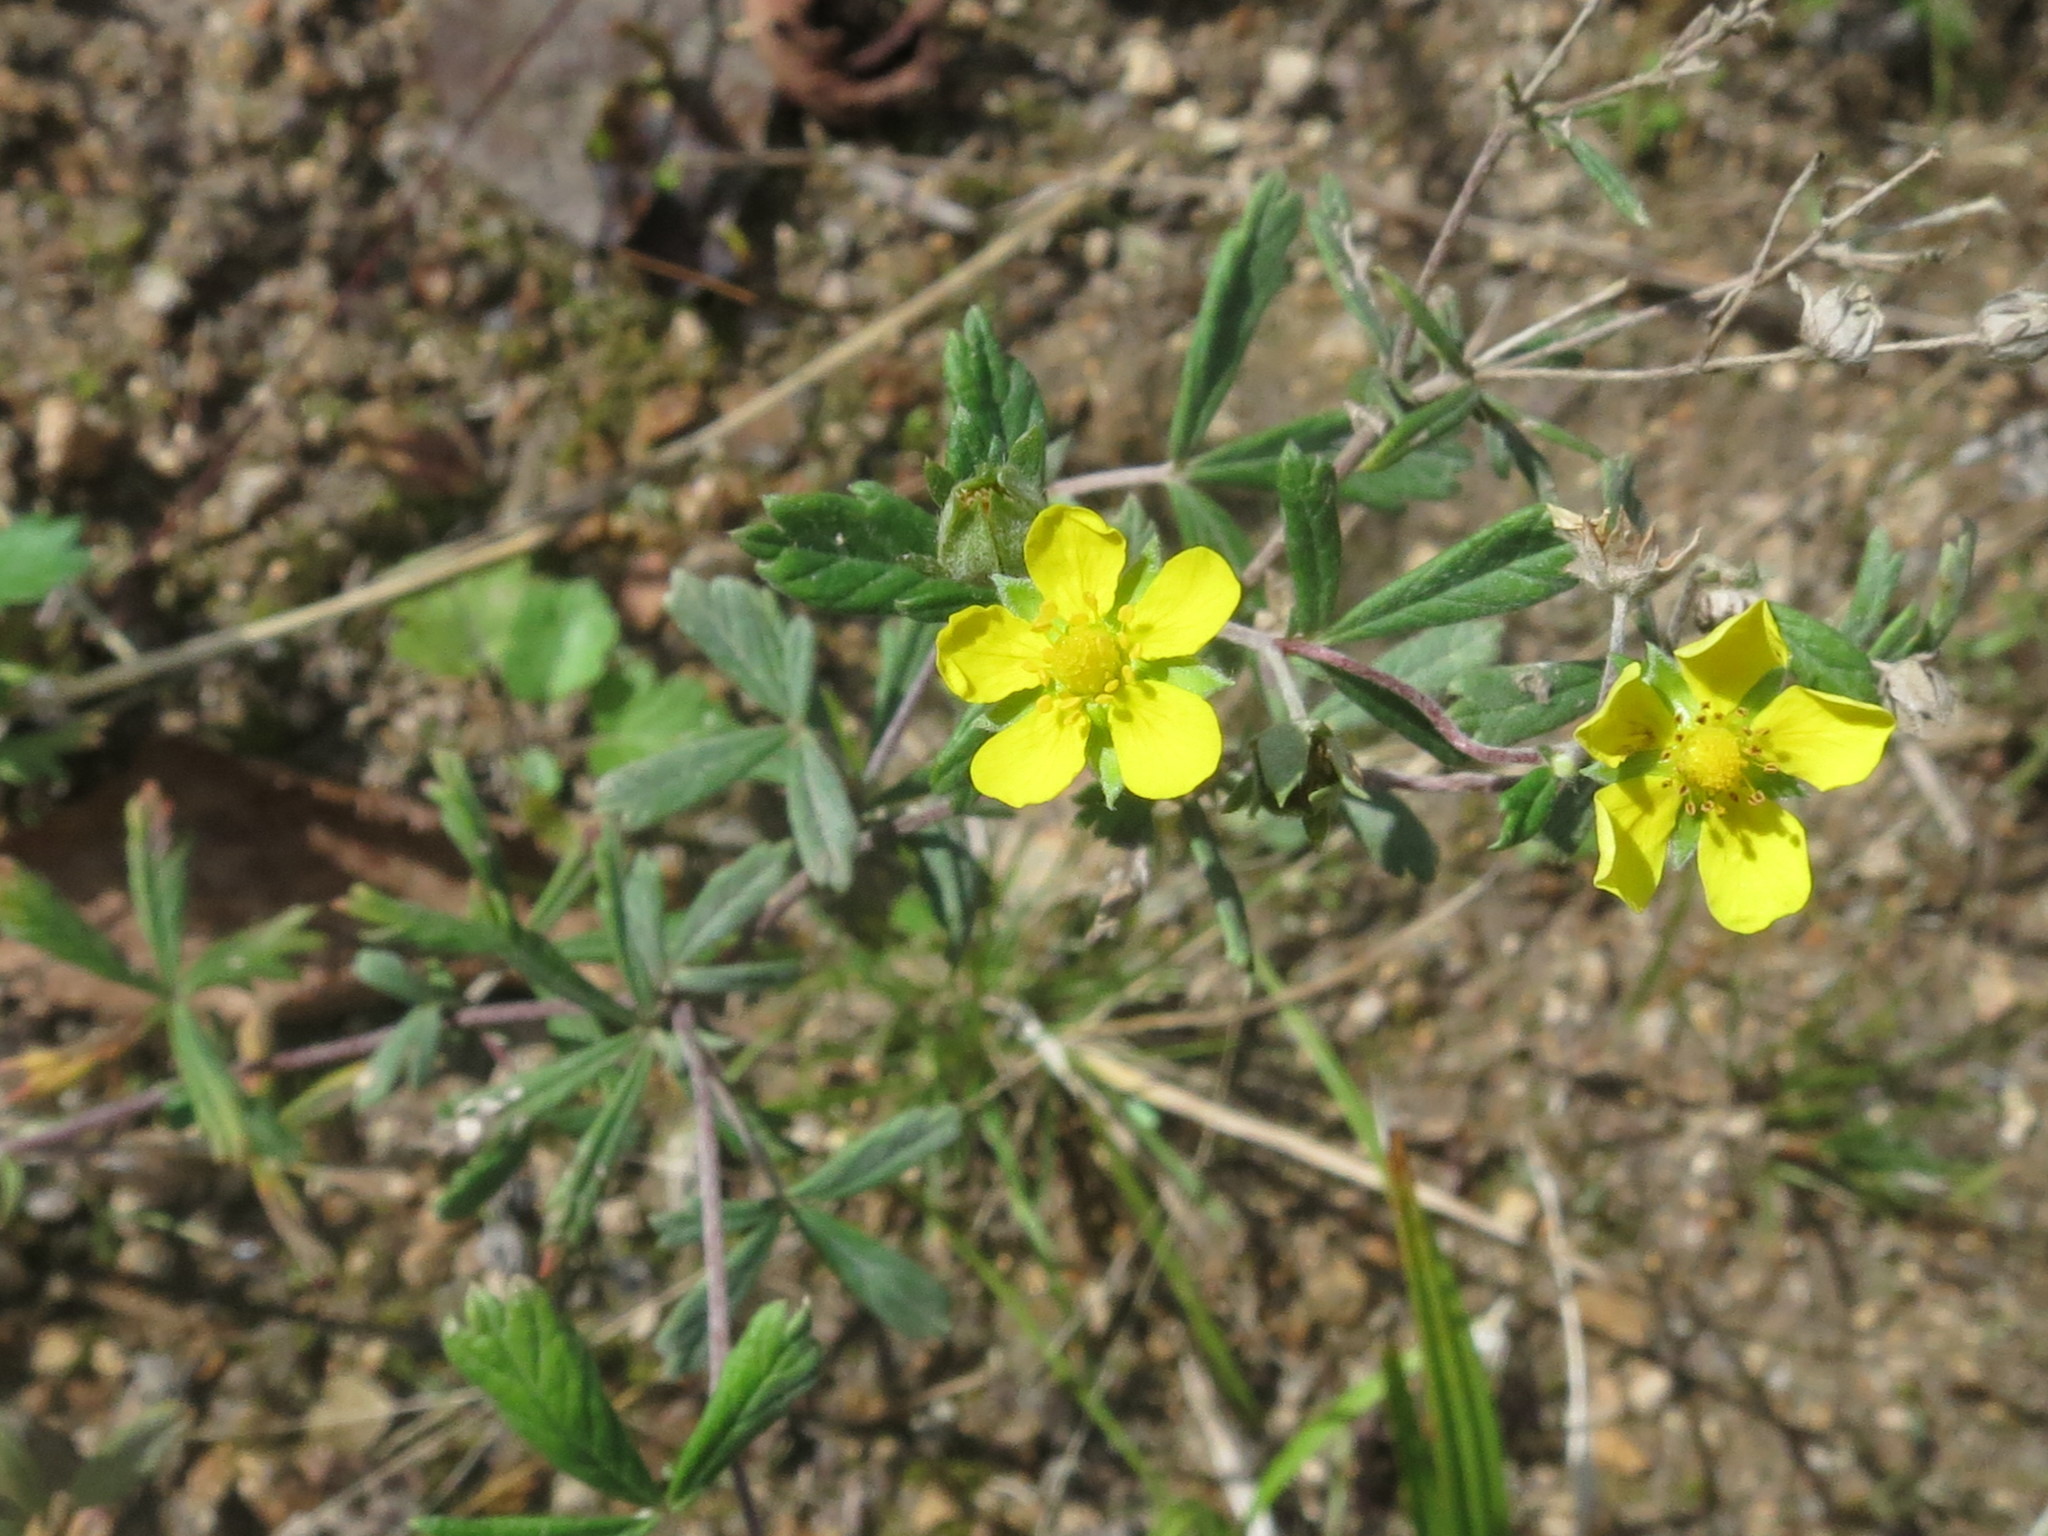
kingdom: Plantae
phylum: Tracheophyta
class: Magnoliopsida
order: Rosales
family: Rosaceae
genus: Potentilla
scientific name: Potentilla argentea
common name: Hoary cinquefoil
